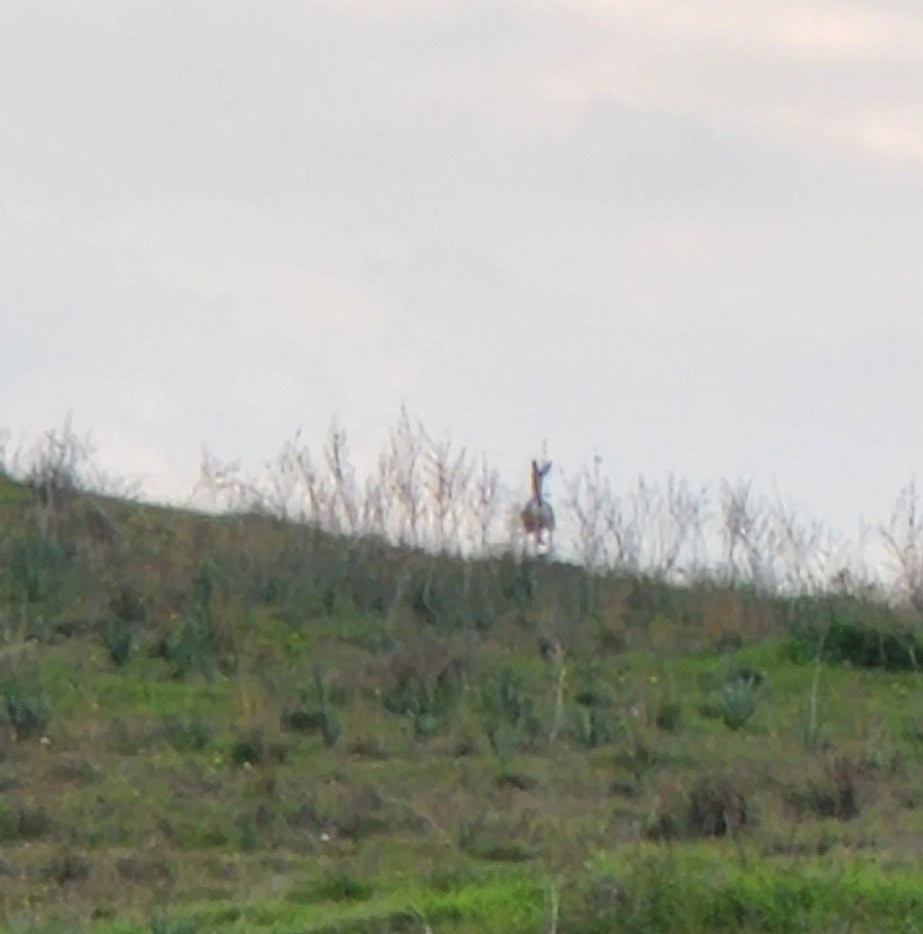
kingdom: Animalia
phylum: Chordata
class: Mammalia
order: Artiodactyla
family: Bovidae
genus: Gazella
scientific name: Gazella gazella
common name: Mountain gazelle
